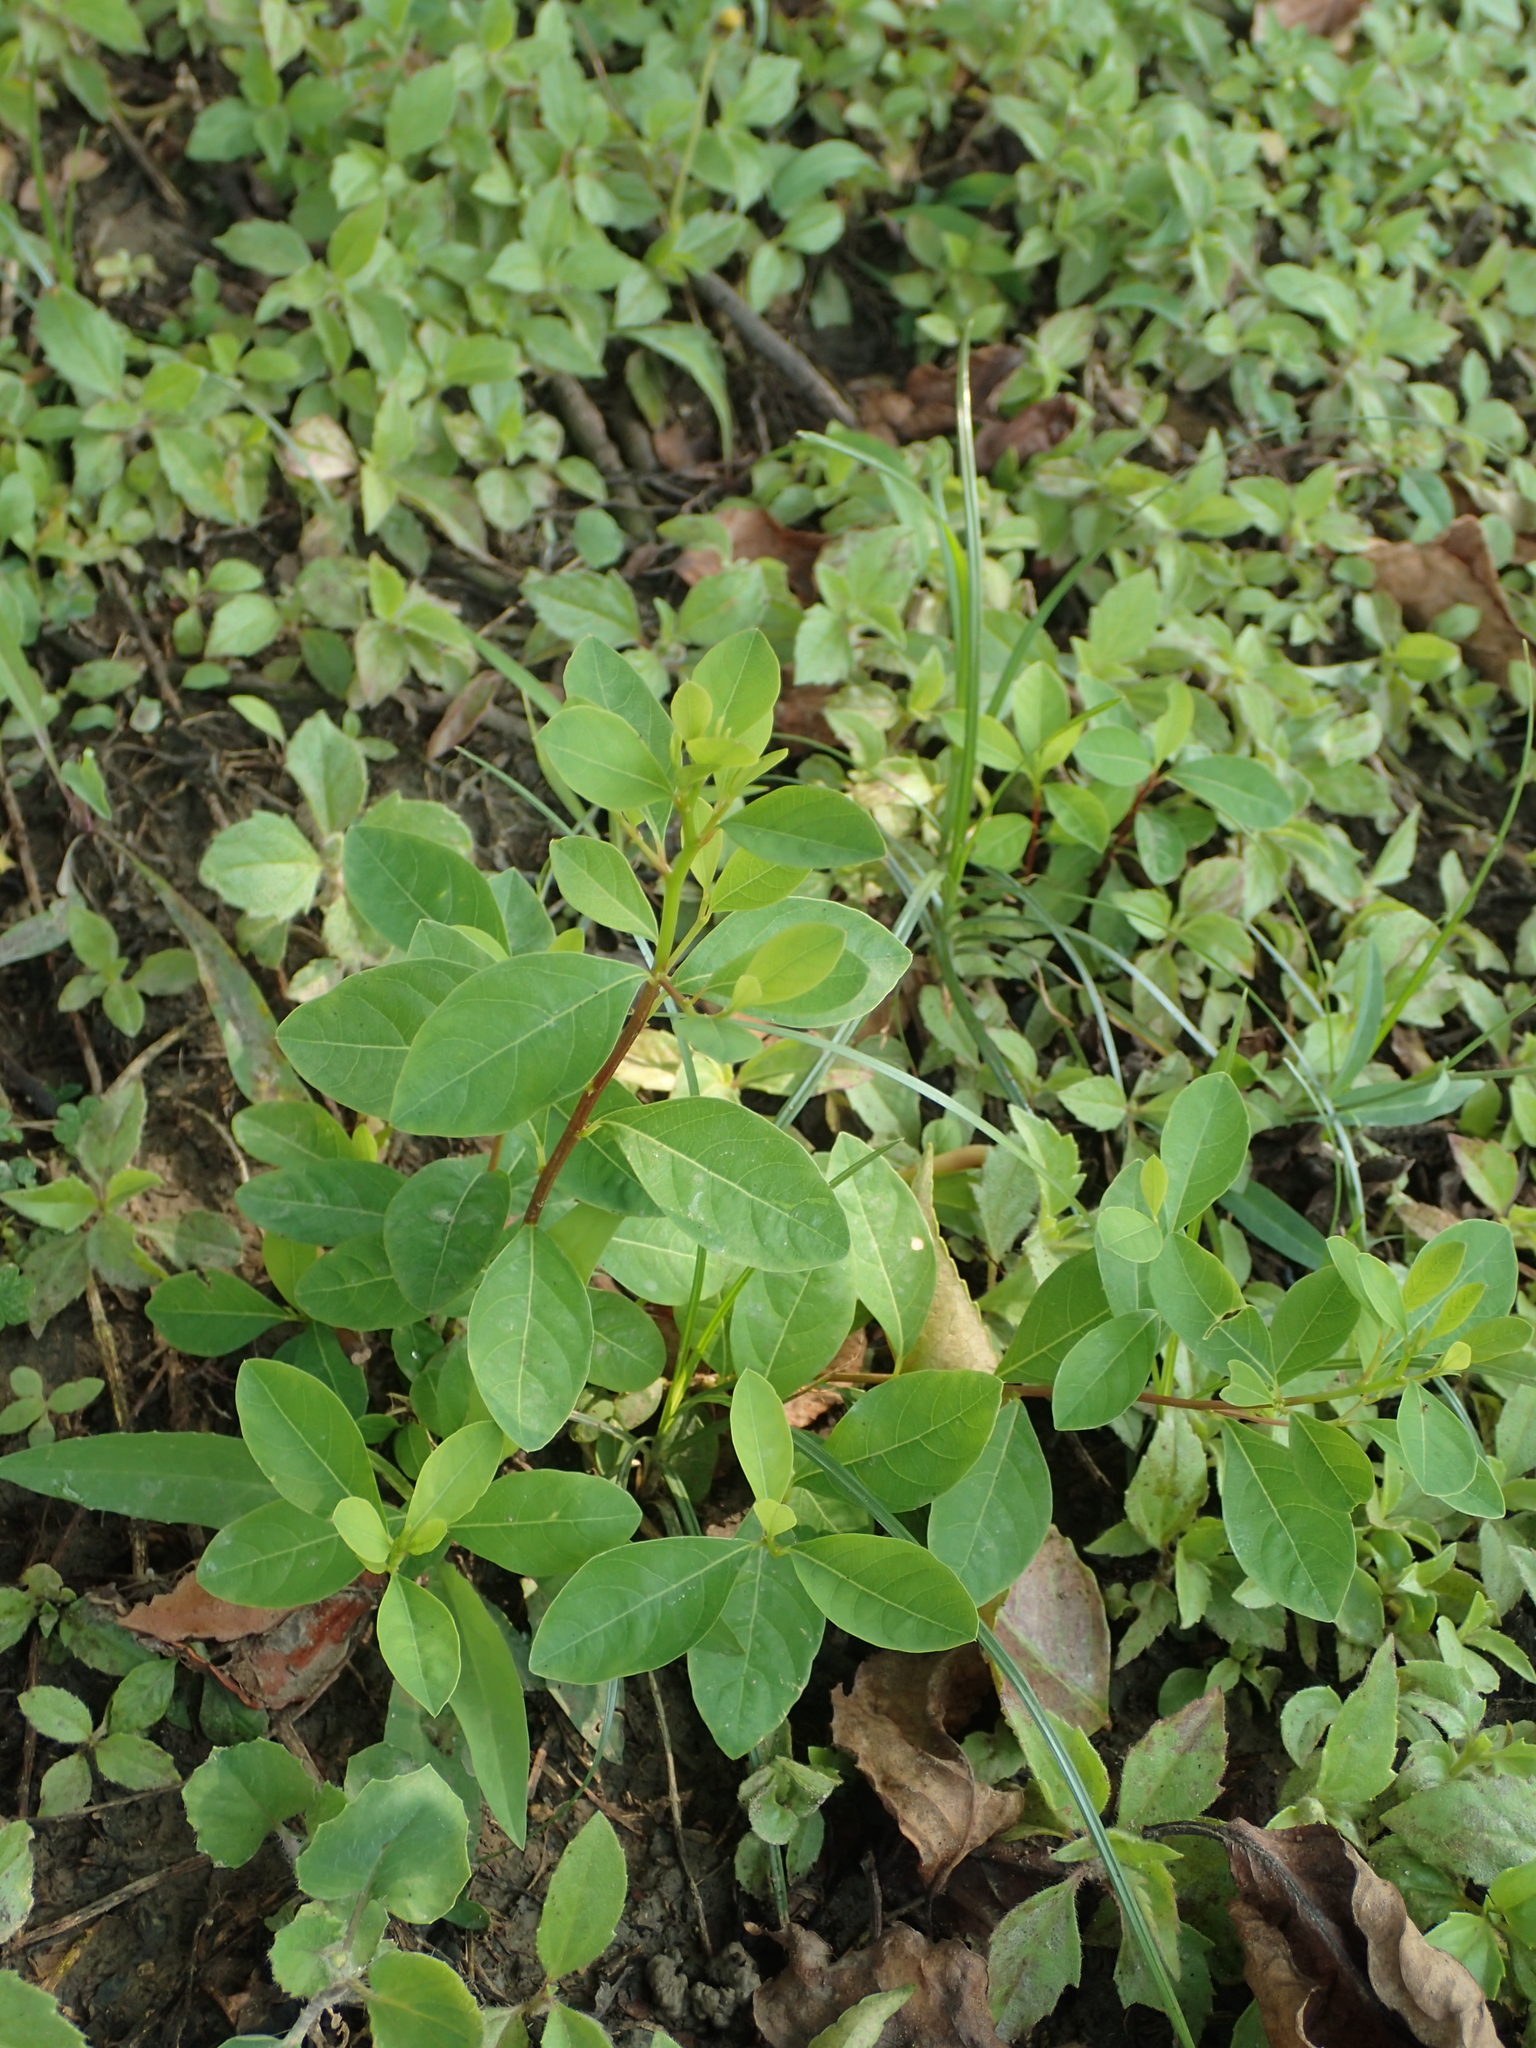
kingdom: Plantae
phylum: Tracheophyta
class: Magnoliopsida
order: Malpighiales
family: Phyllanthaceae
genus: Flueggea
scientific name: Flueggea virosa
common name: Common bushweed
